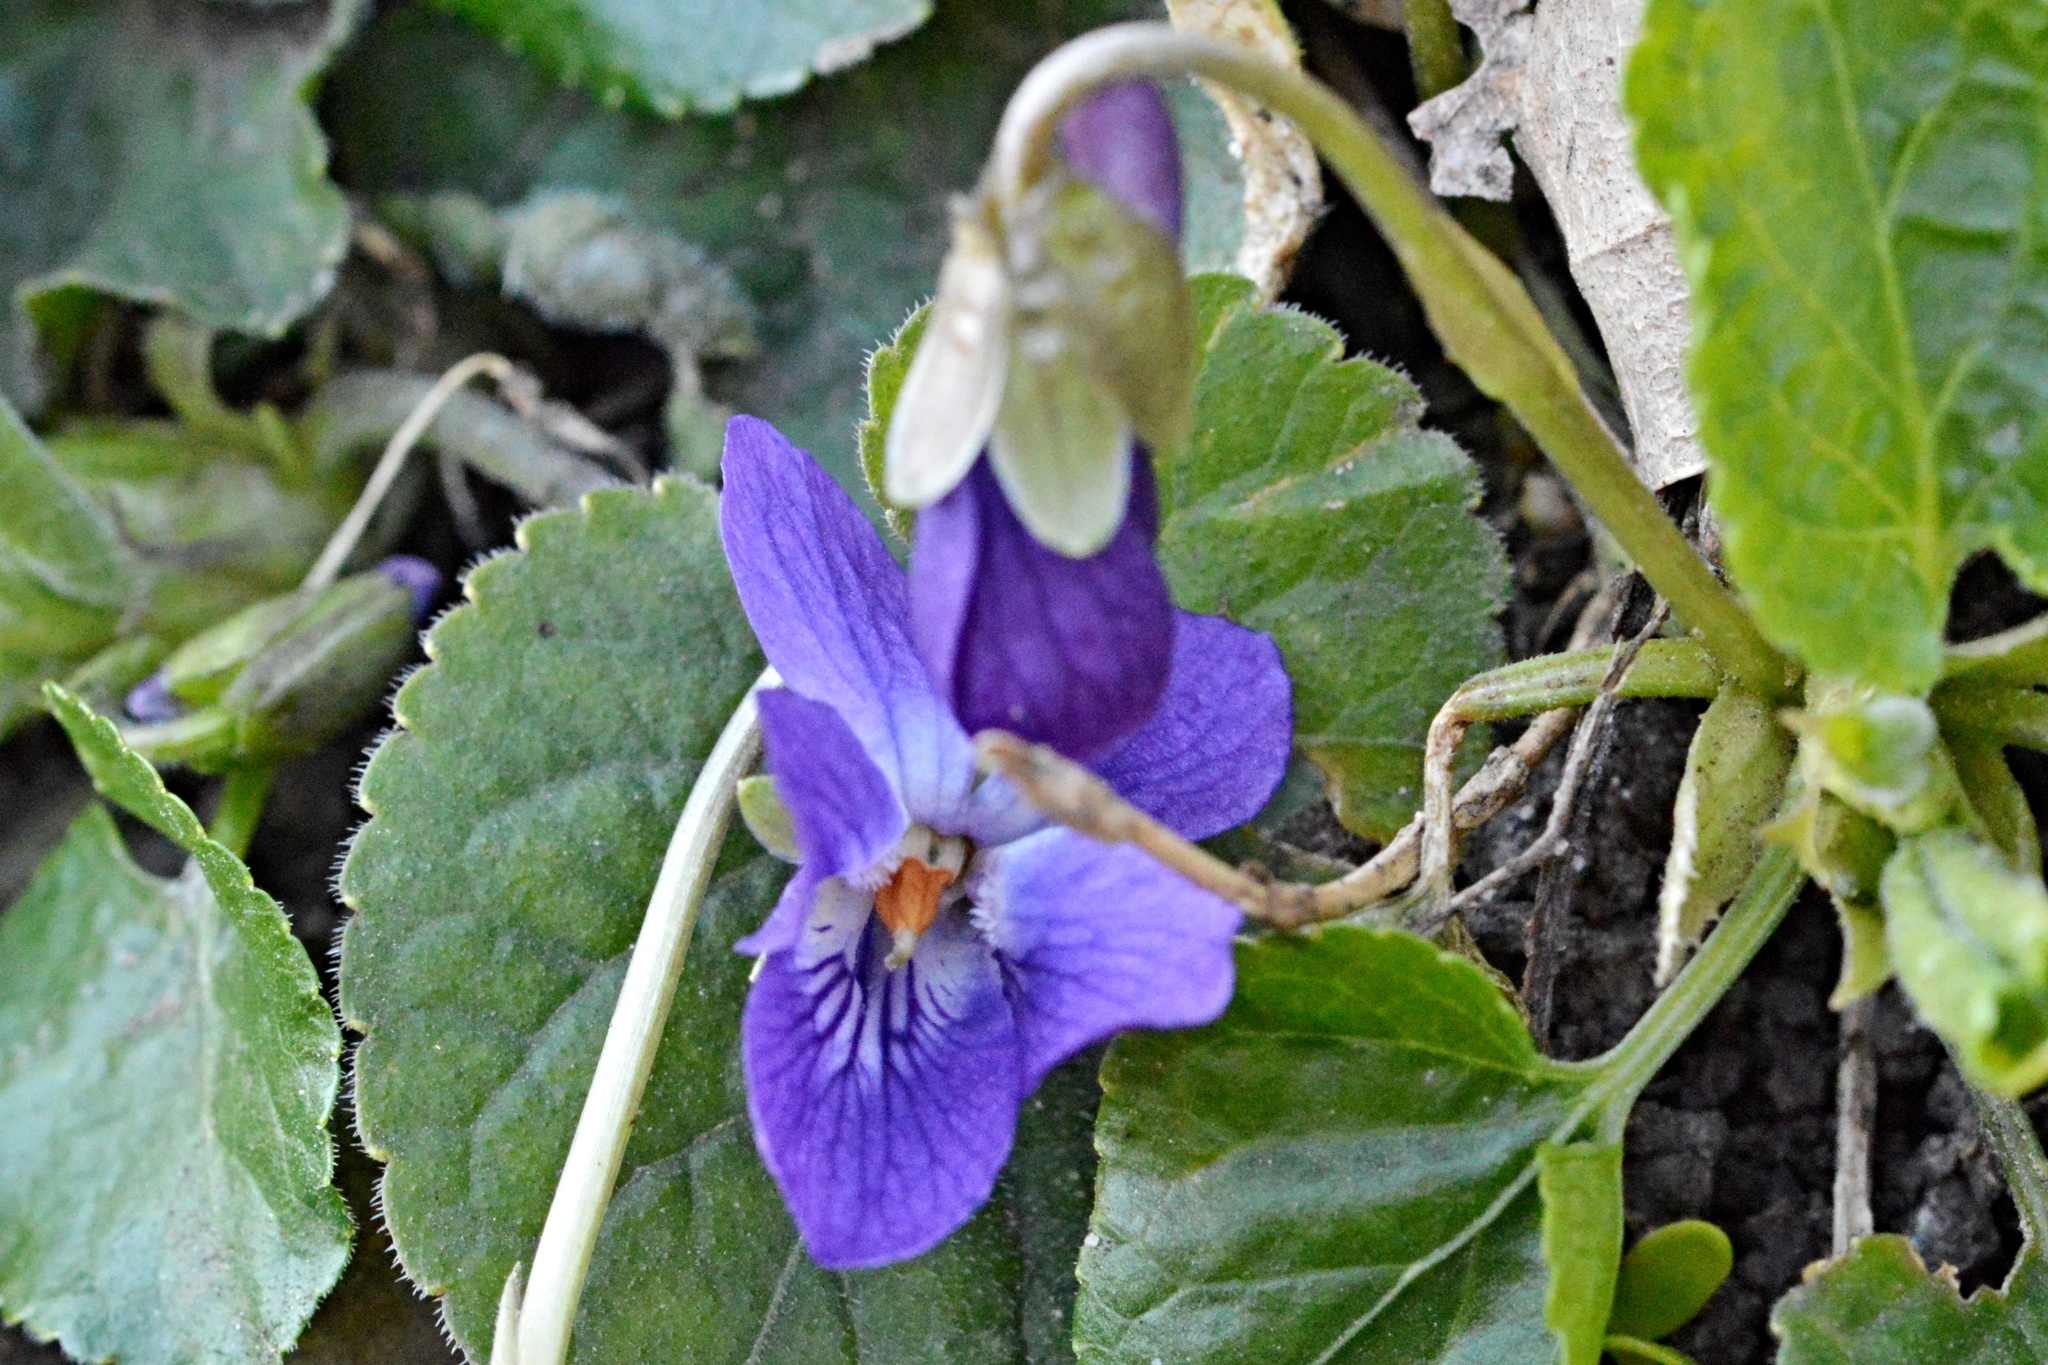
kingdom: Plantae
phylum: Tracheophyta
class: Magnoliopsida
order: Malpighiales
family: Violaceae
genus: Viola
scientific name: Viola odorata
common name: Sweet violet
